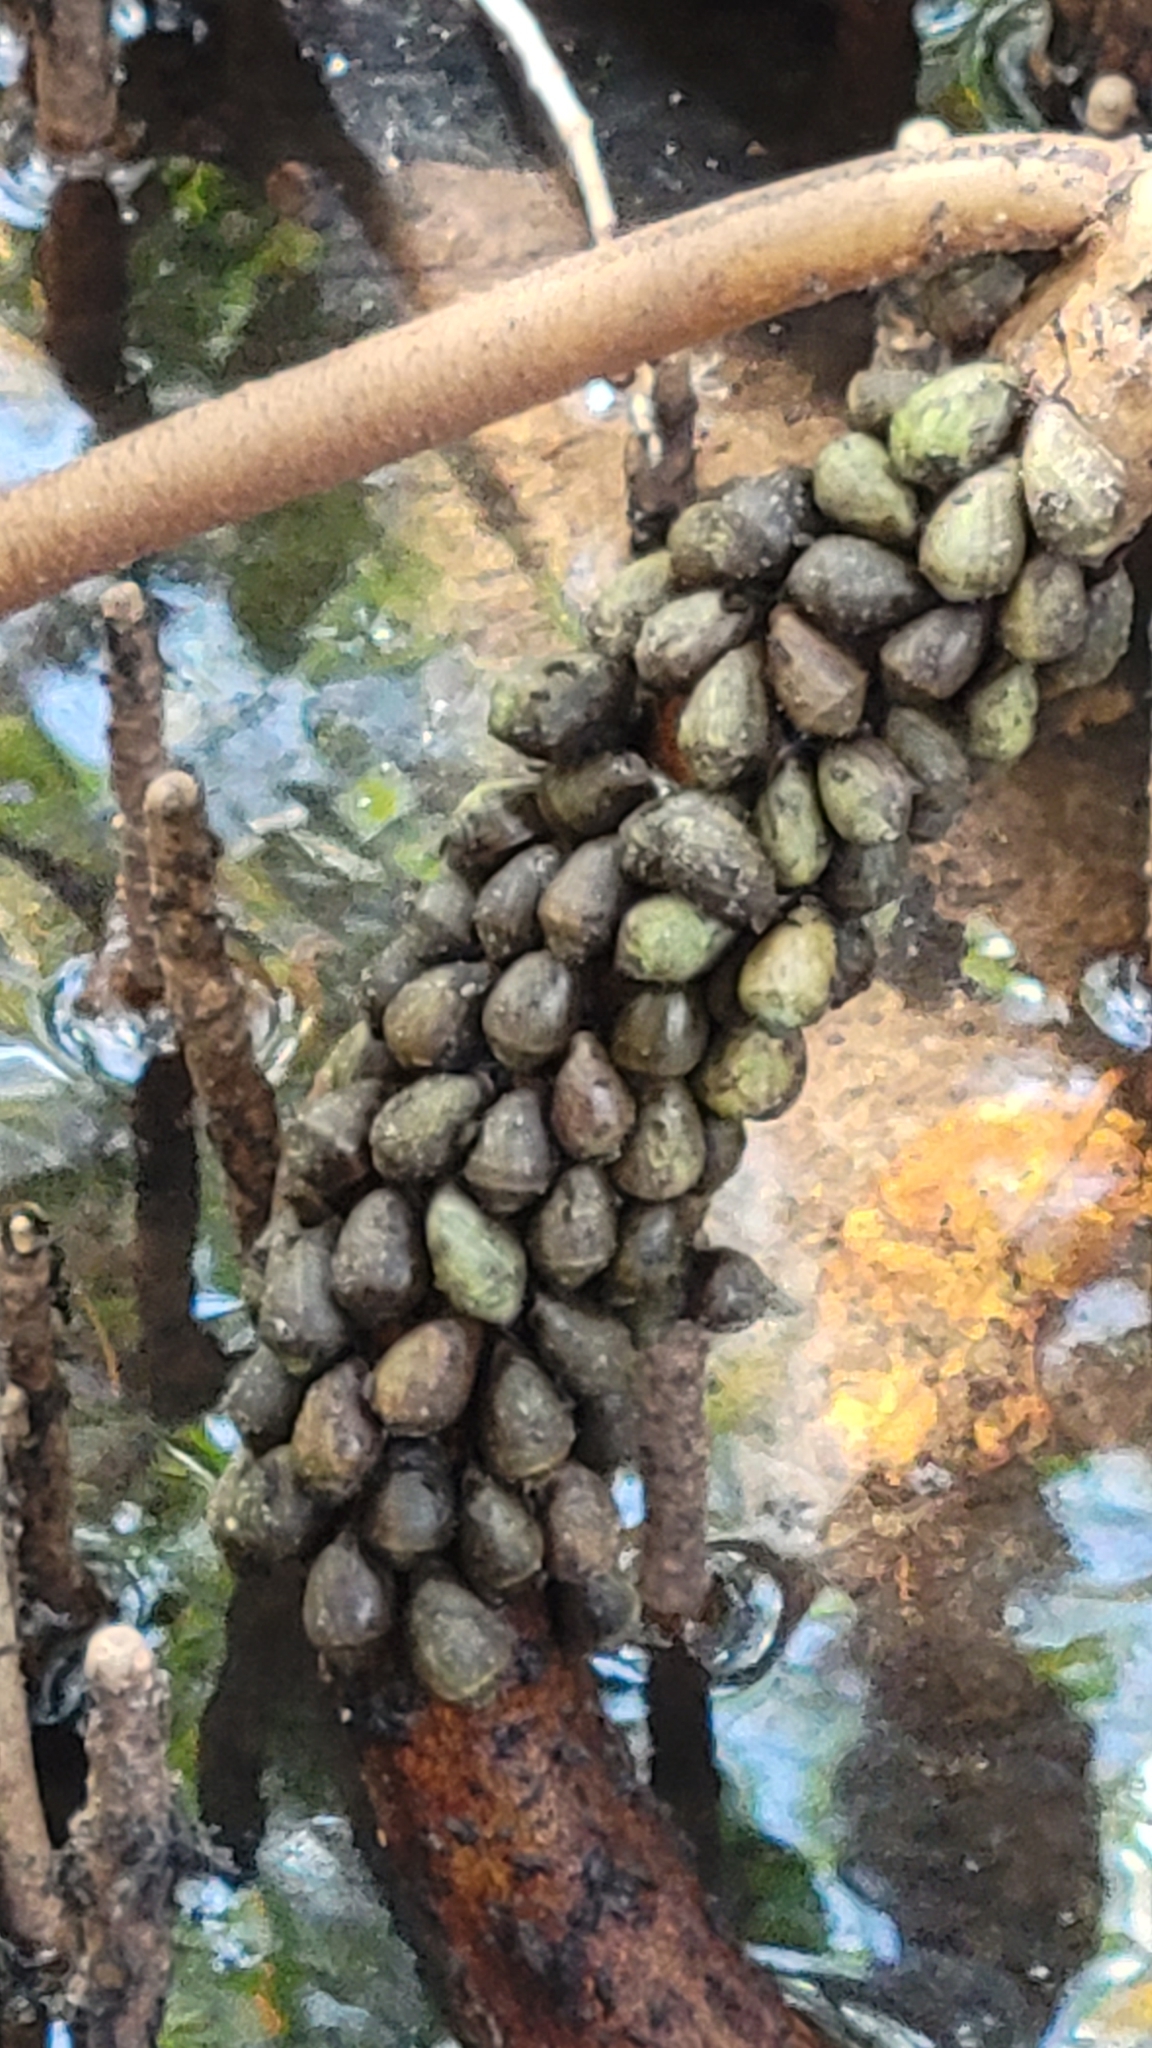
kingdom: Animalia
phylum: Mollusca
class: Gastropoda
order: Ellobiida
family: Ellobiidae
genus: Melampus
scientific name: Melampus coffea
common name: Coffee bean snail
